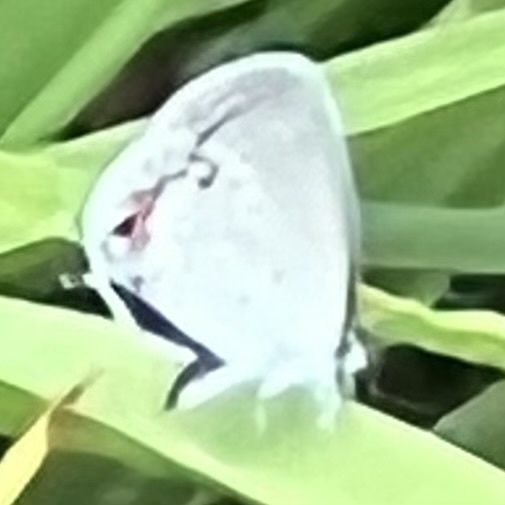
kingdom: Animalia
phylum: Arthropoda
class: Insecta
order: Lepidoptera
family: Lycaenidae
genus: Elkalyce
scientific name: Elkalyce comyntas
